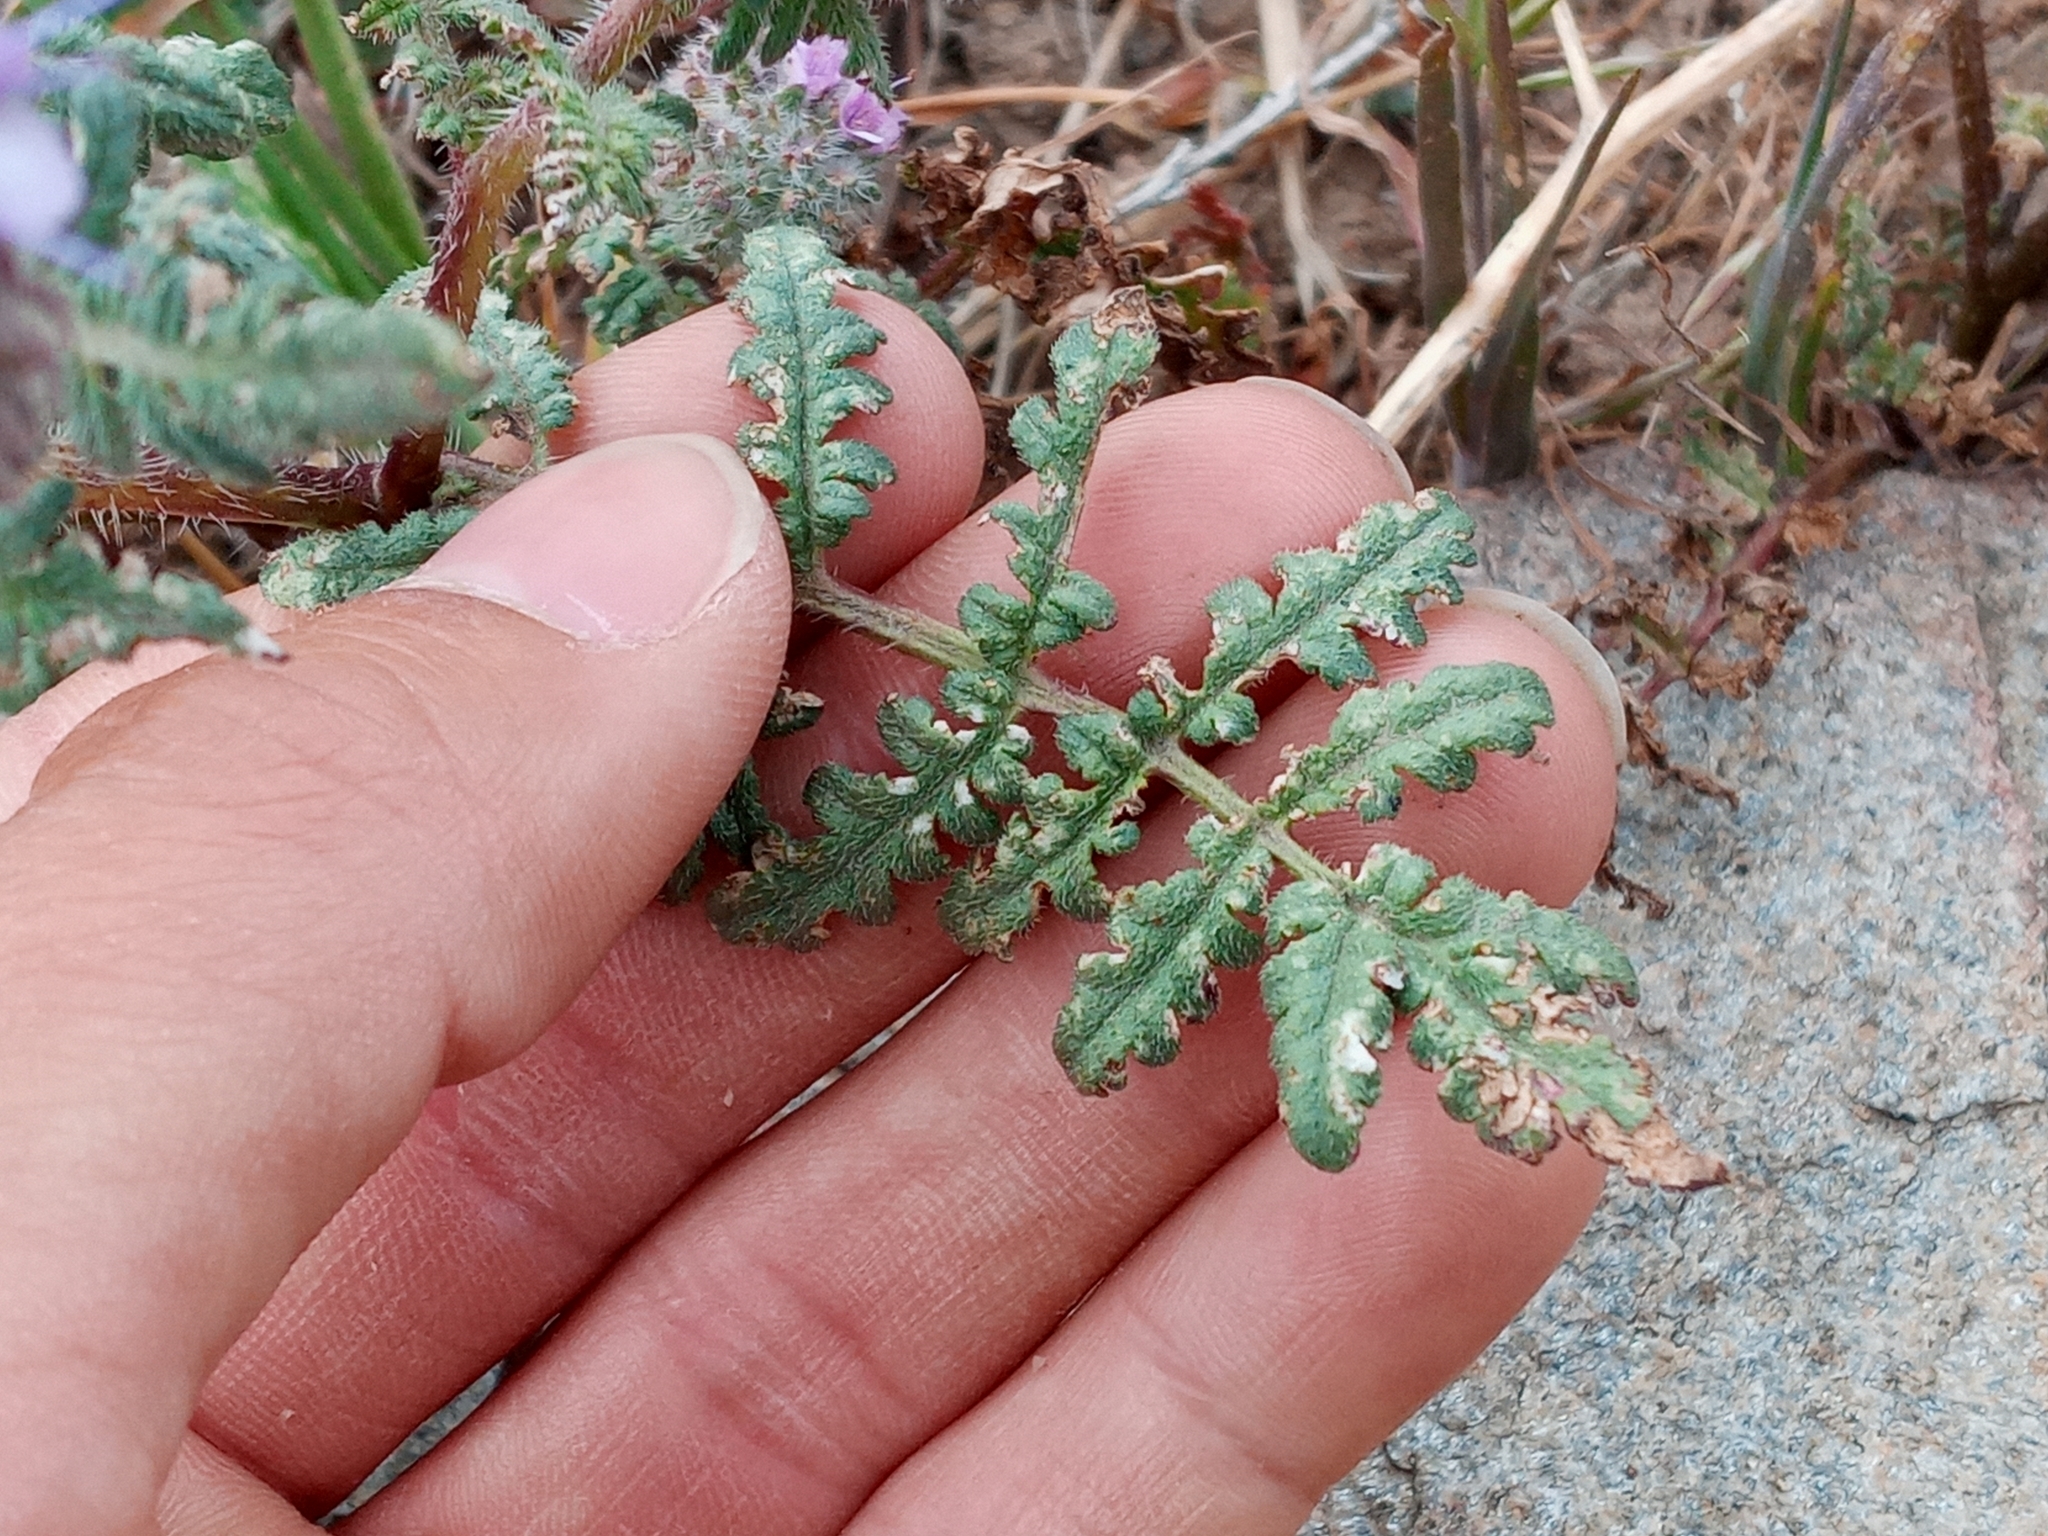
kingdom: Plantae
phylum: Tracheophyta
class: Magnoliopsida
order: Boraginales
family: Hydrophyllaceae
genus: Phacelia
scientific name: Phacelia tanacetifolia
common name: Phacelia
